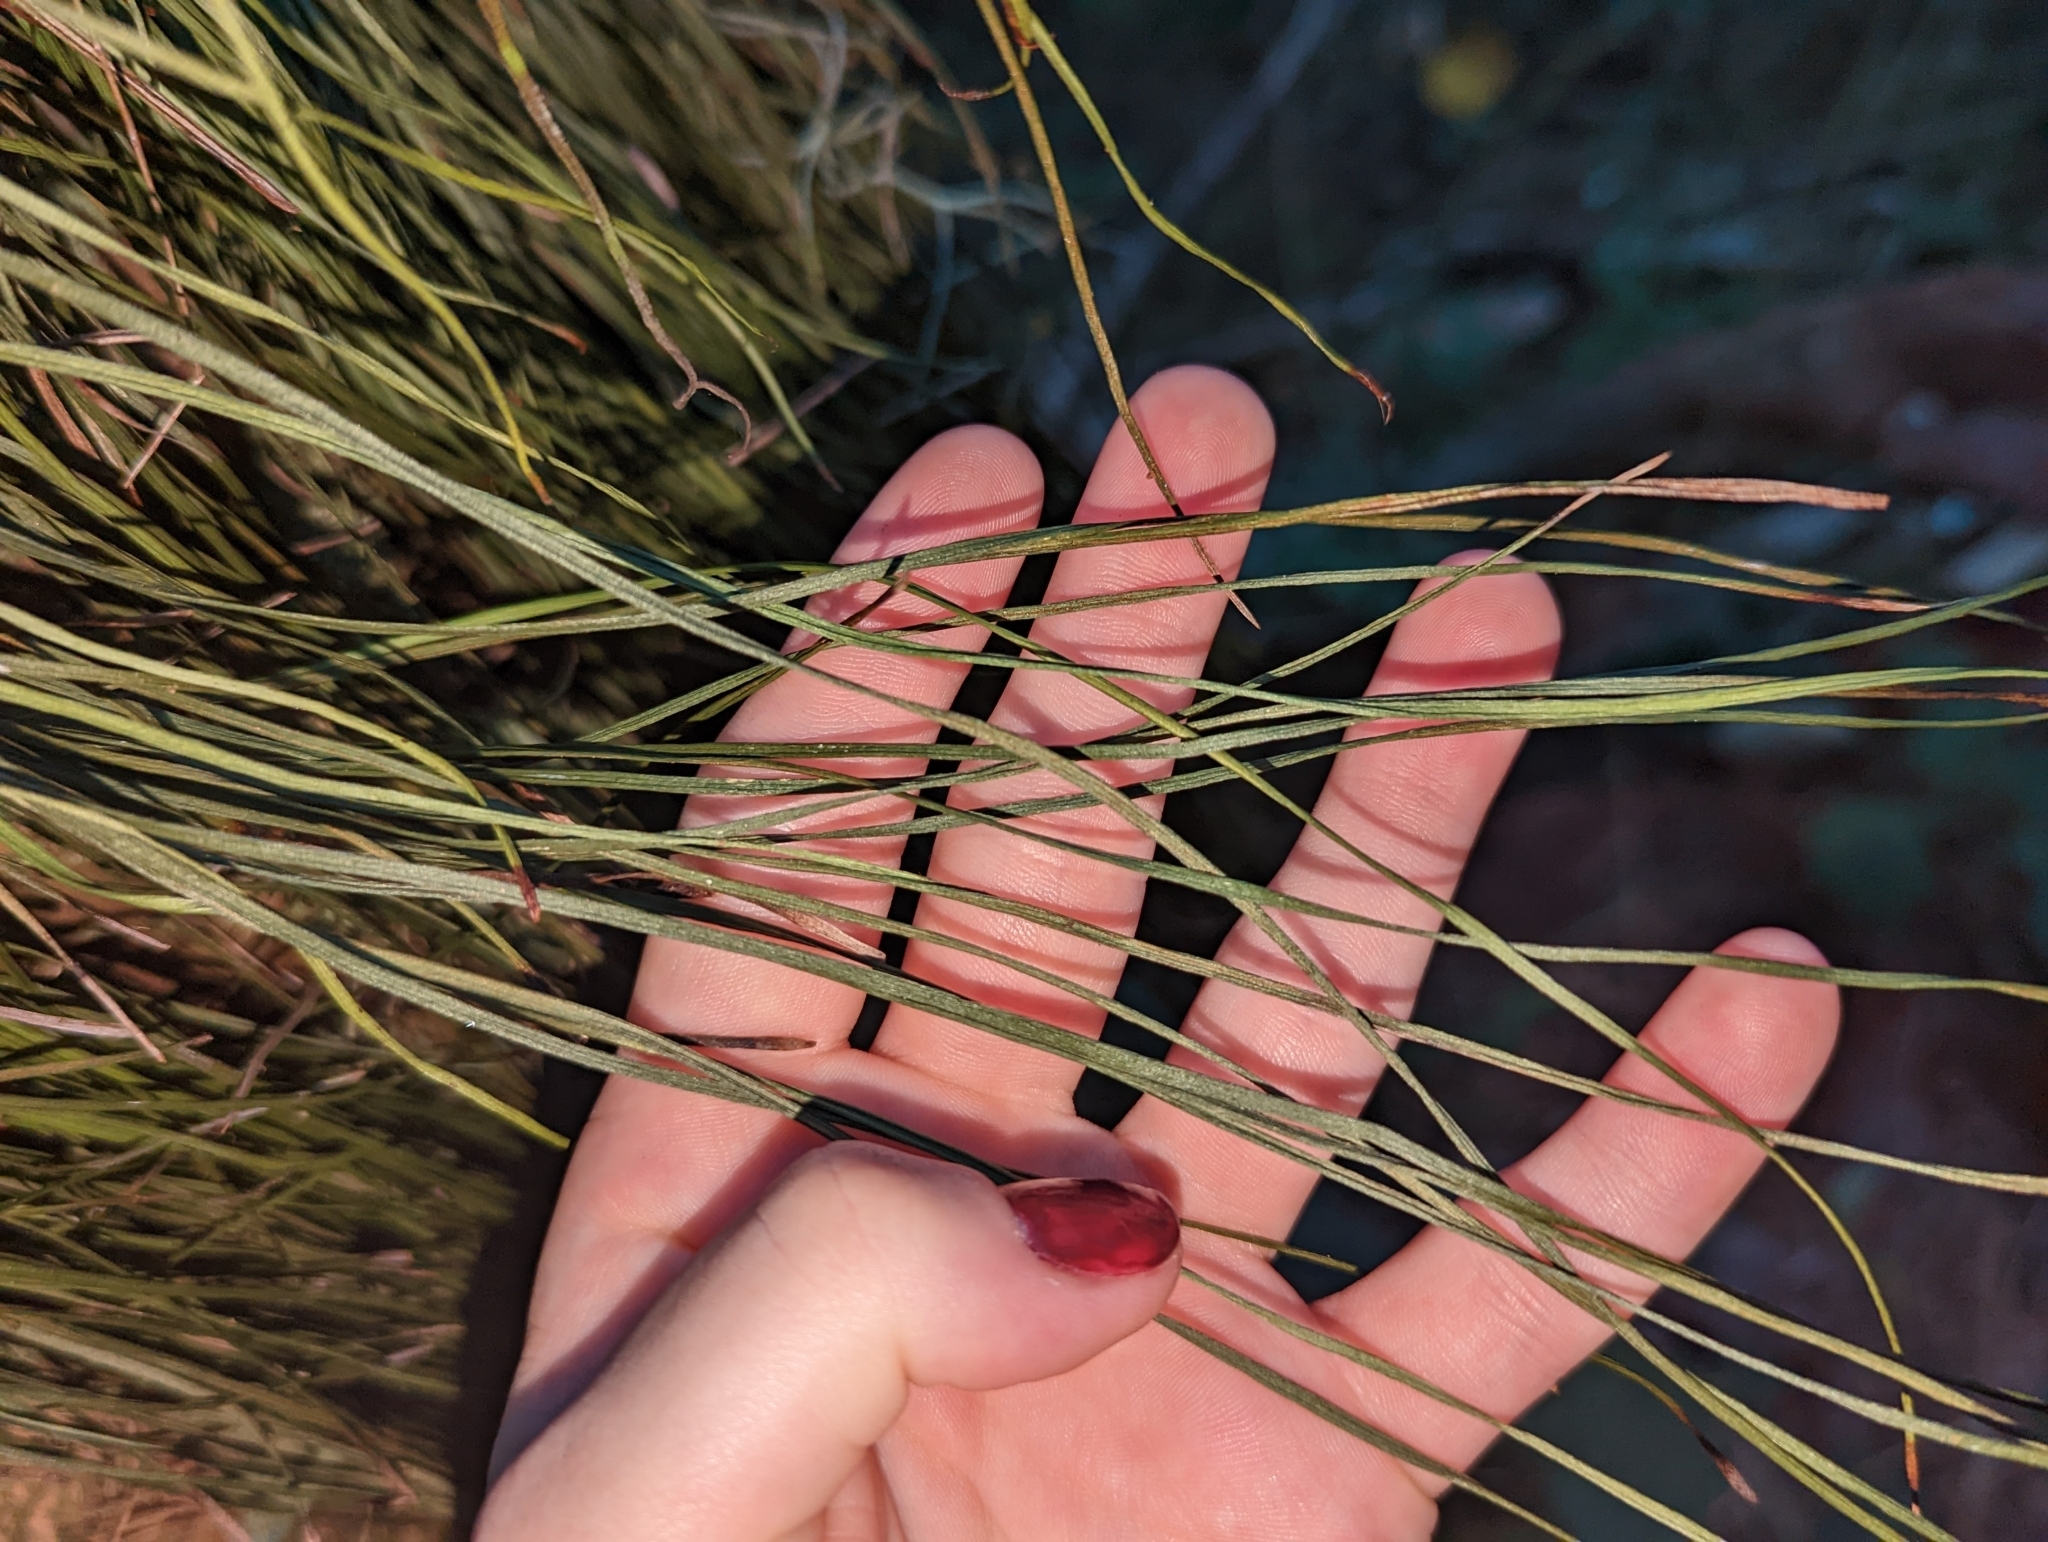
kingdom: Plantae
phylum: Tracheophyta
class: Polypodiopsida
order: Polypodiales
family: Pteridaceae
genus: Vittaria
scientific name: Vittaria lineata
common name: Shoestring fern
